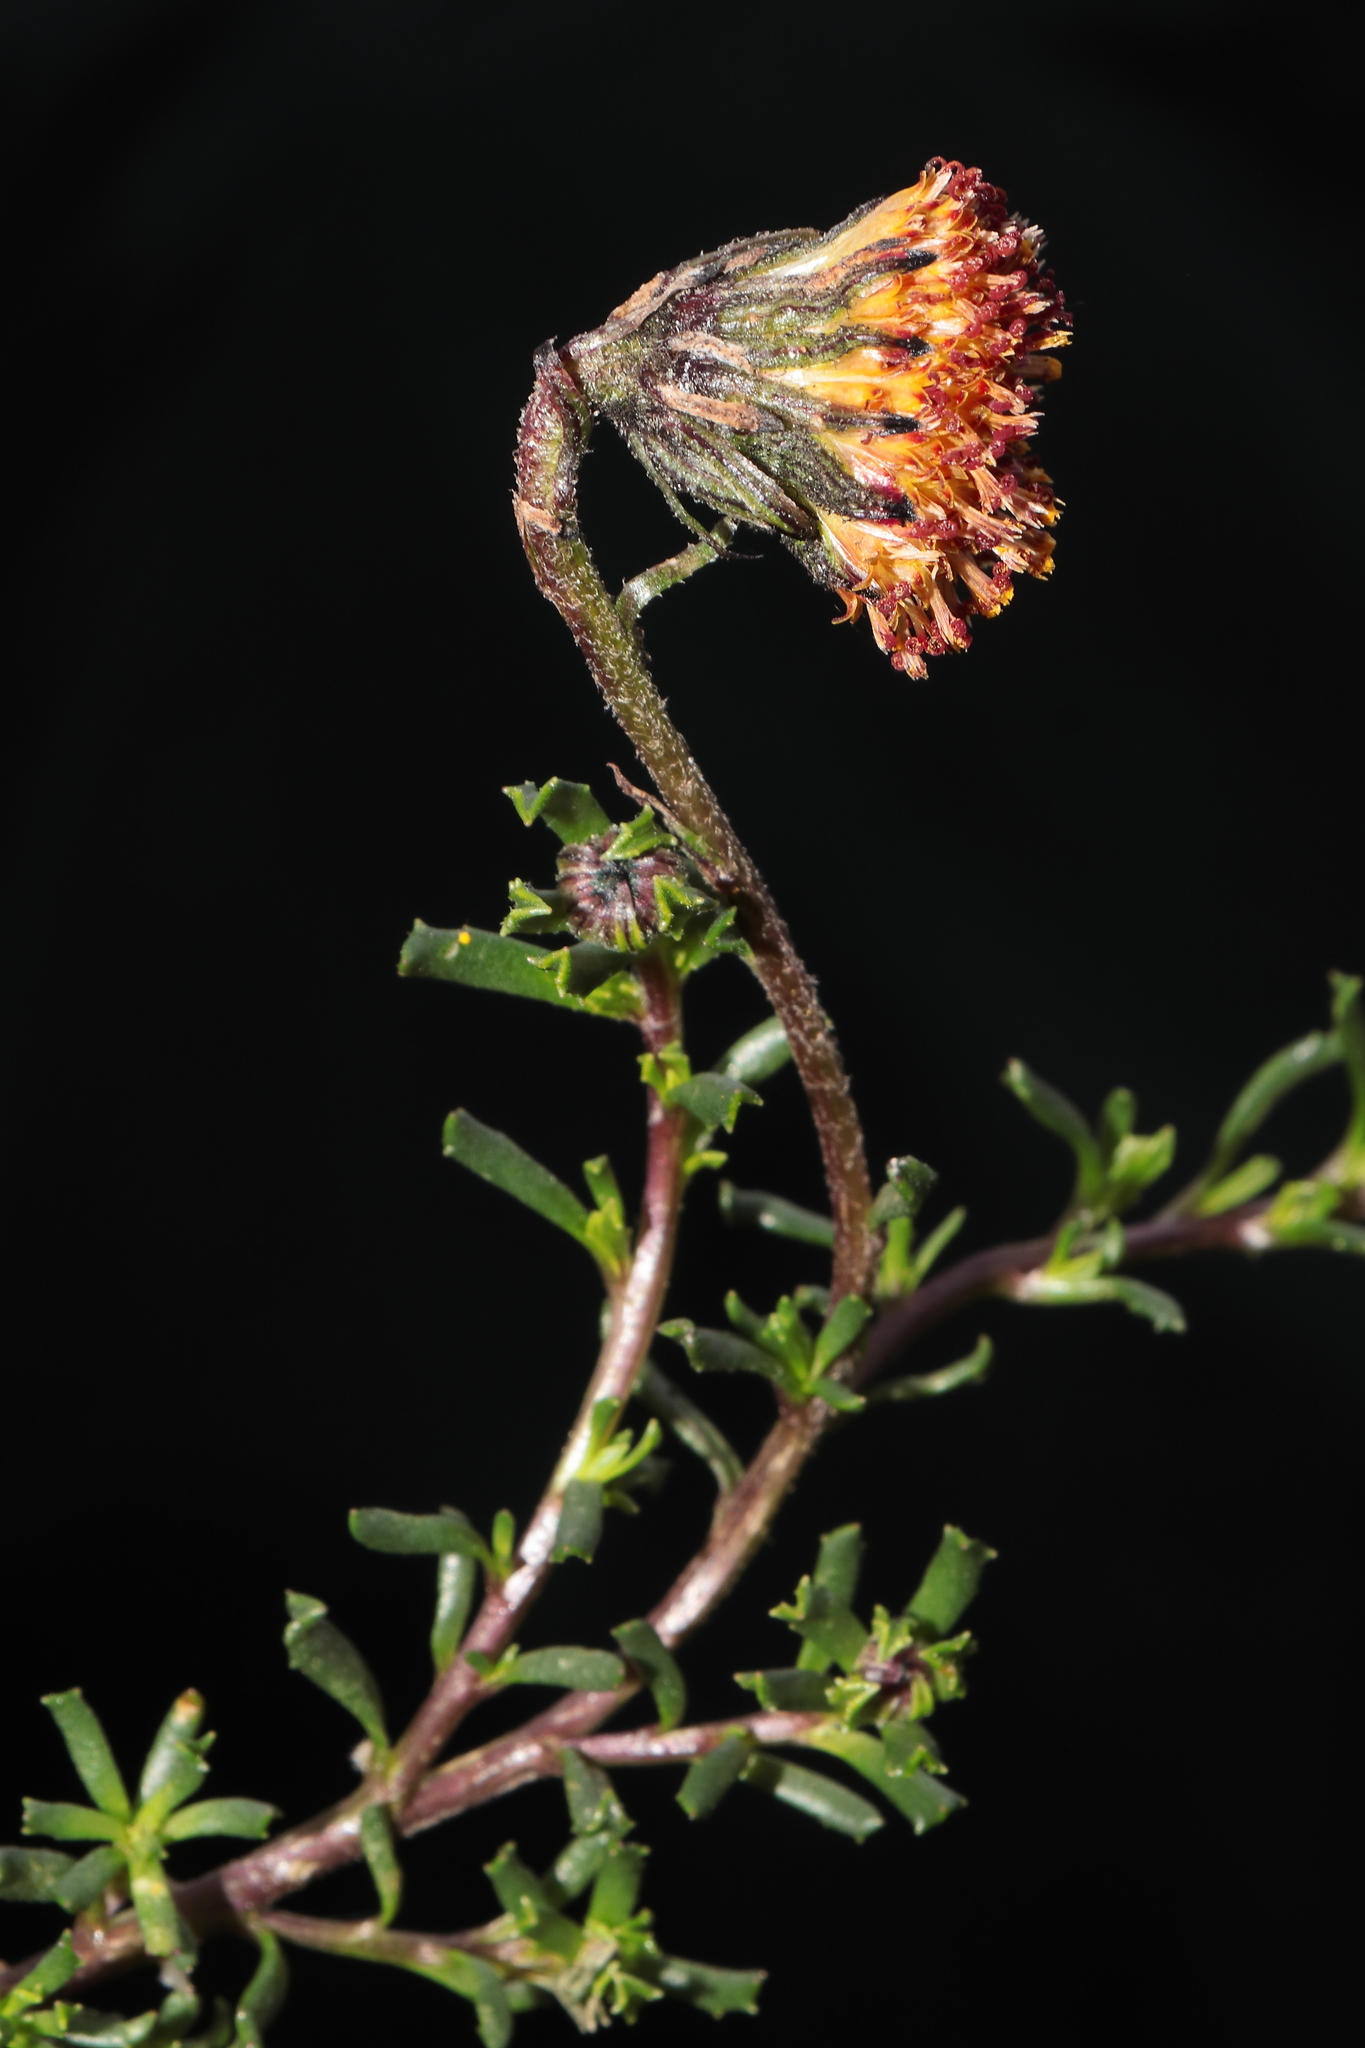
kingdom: Plantae
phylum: Tracheophyta
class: Magnoliopsida
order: Asterales
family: Asteraceae
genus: Senecio
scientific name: Senecio danai
